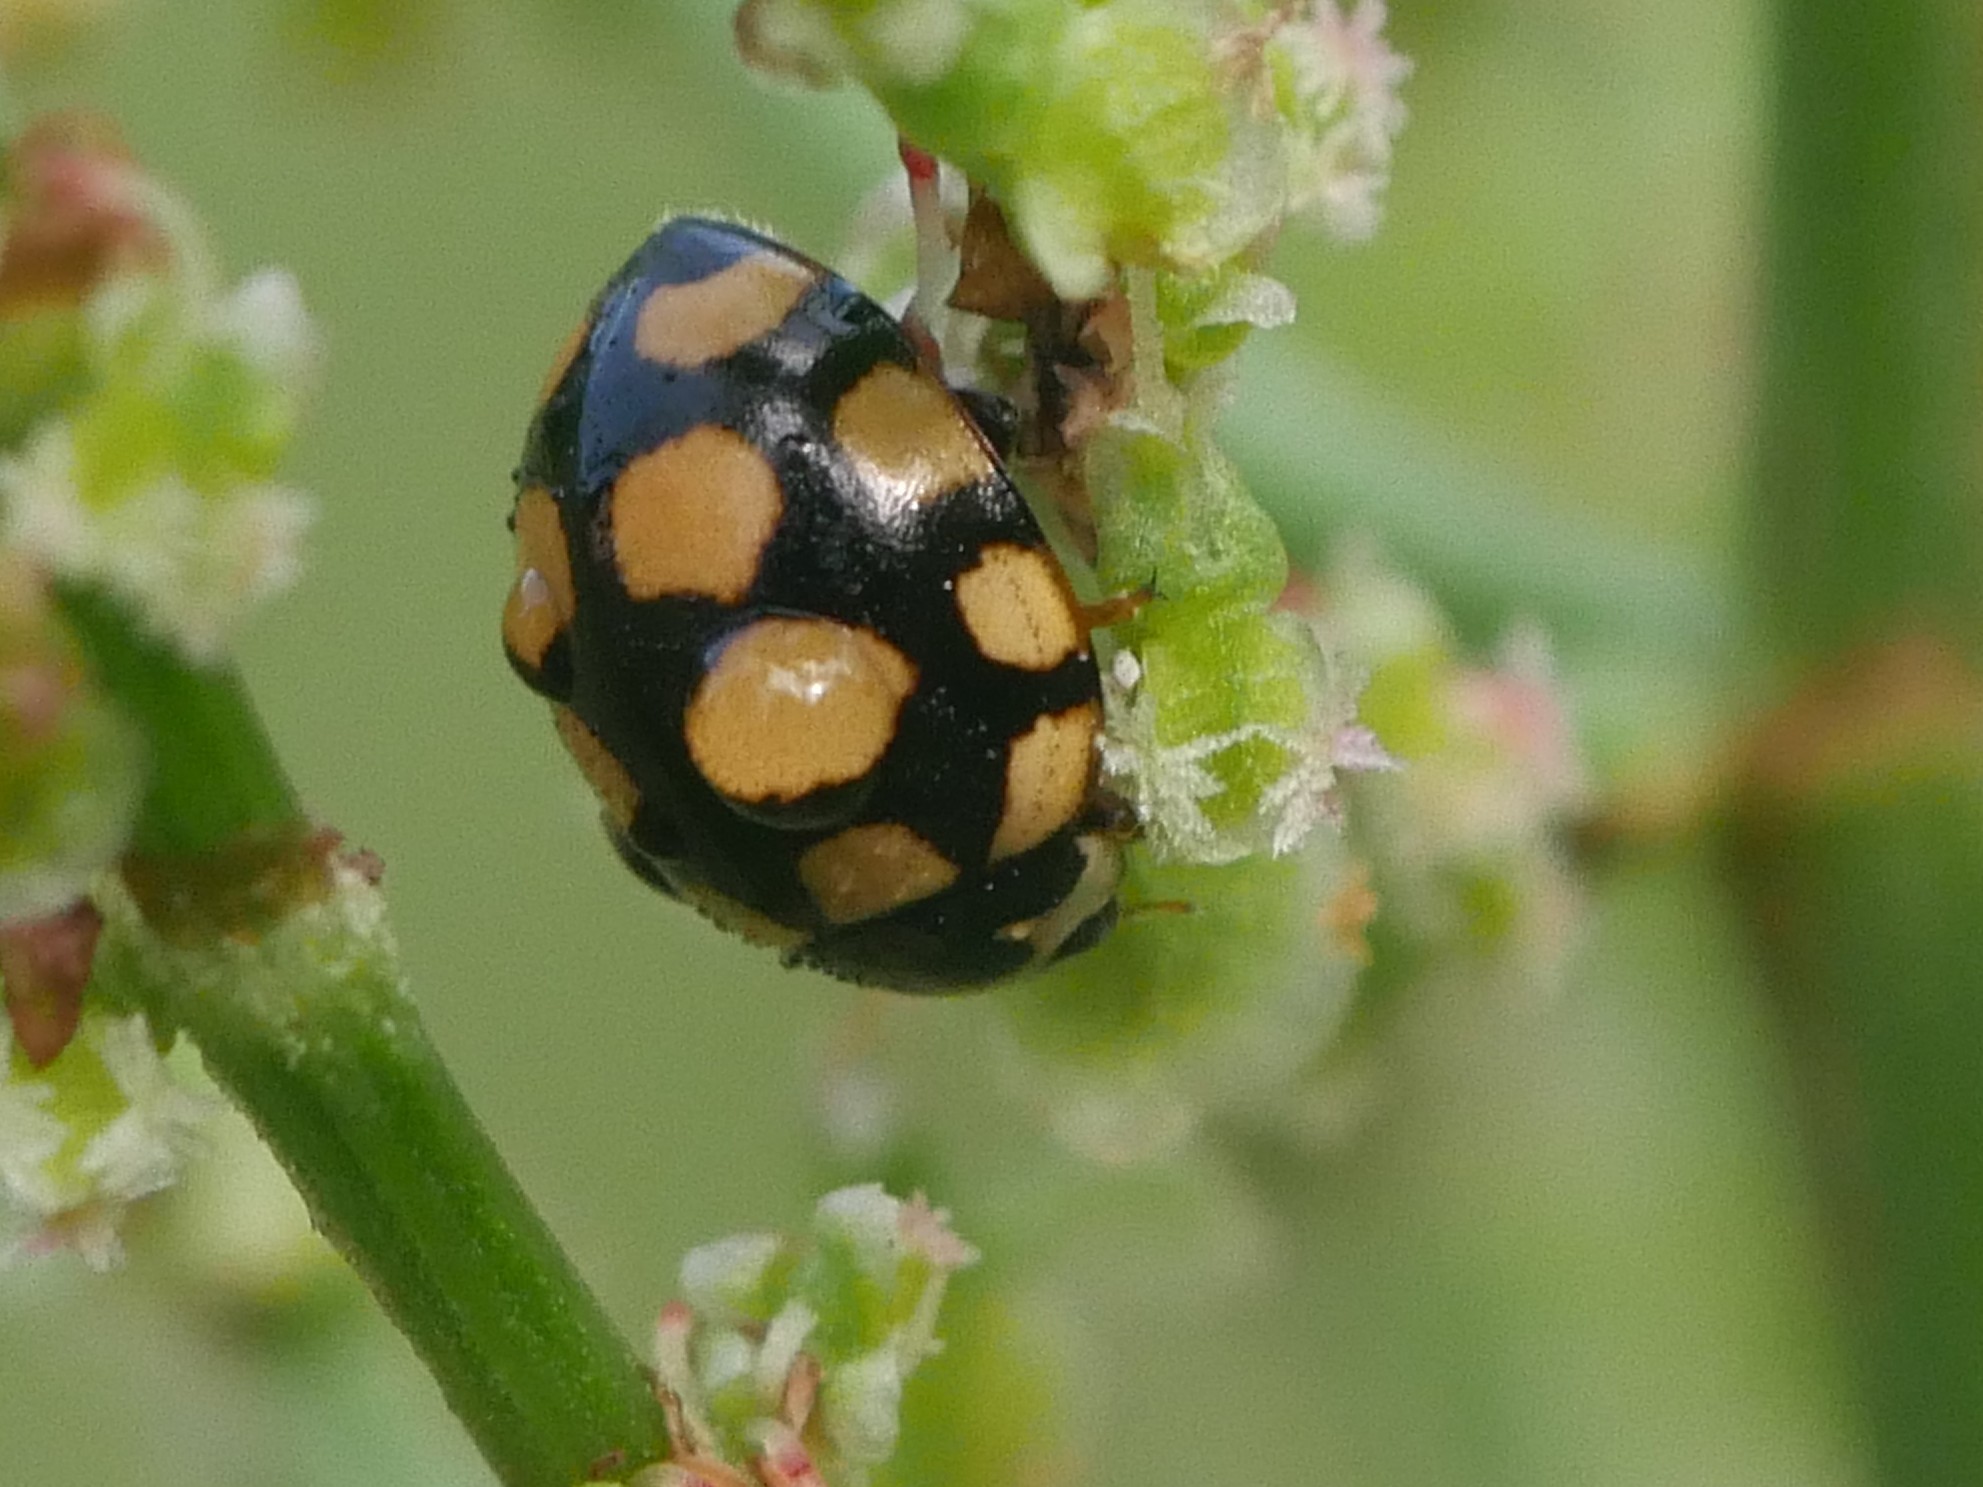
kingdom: Animalia
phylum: Arthropoda
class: Insecta
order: Coleoptera
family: Coccinellidae
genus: Coccinula
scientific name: Coccinula quatuordecimpustulata
